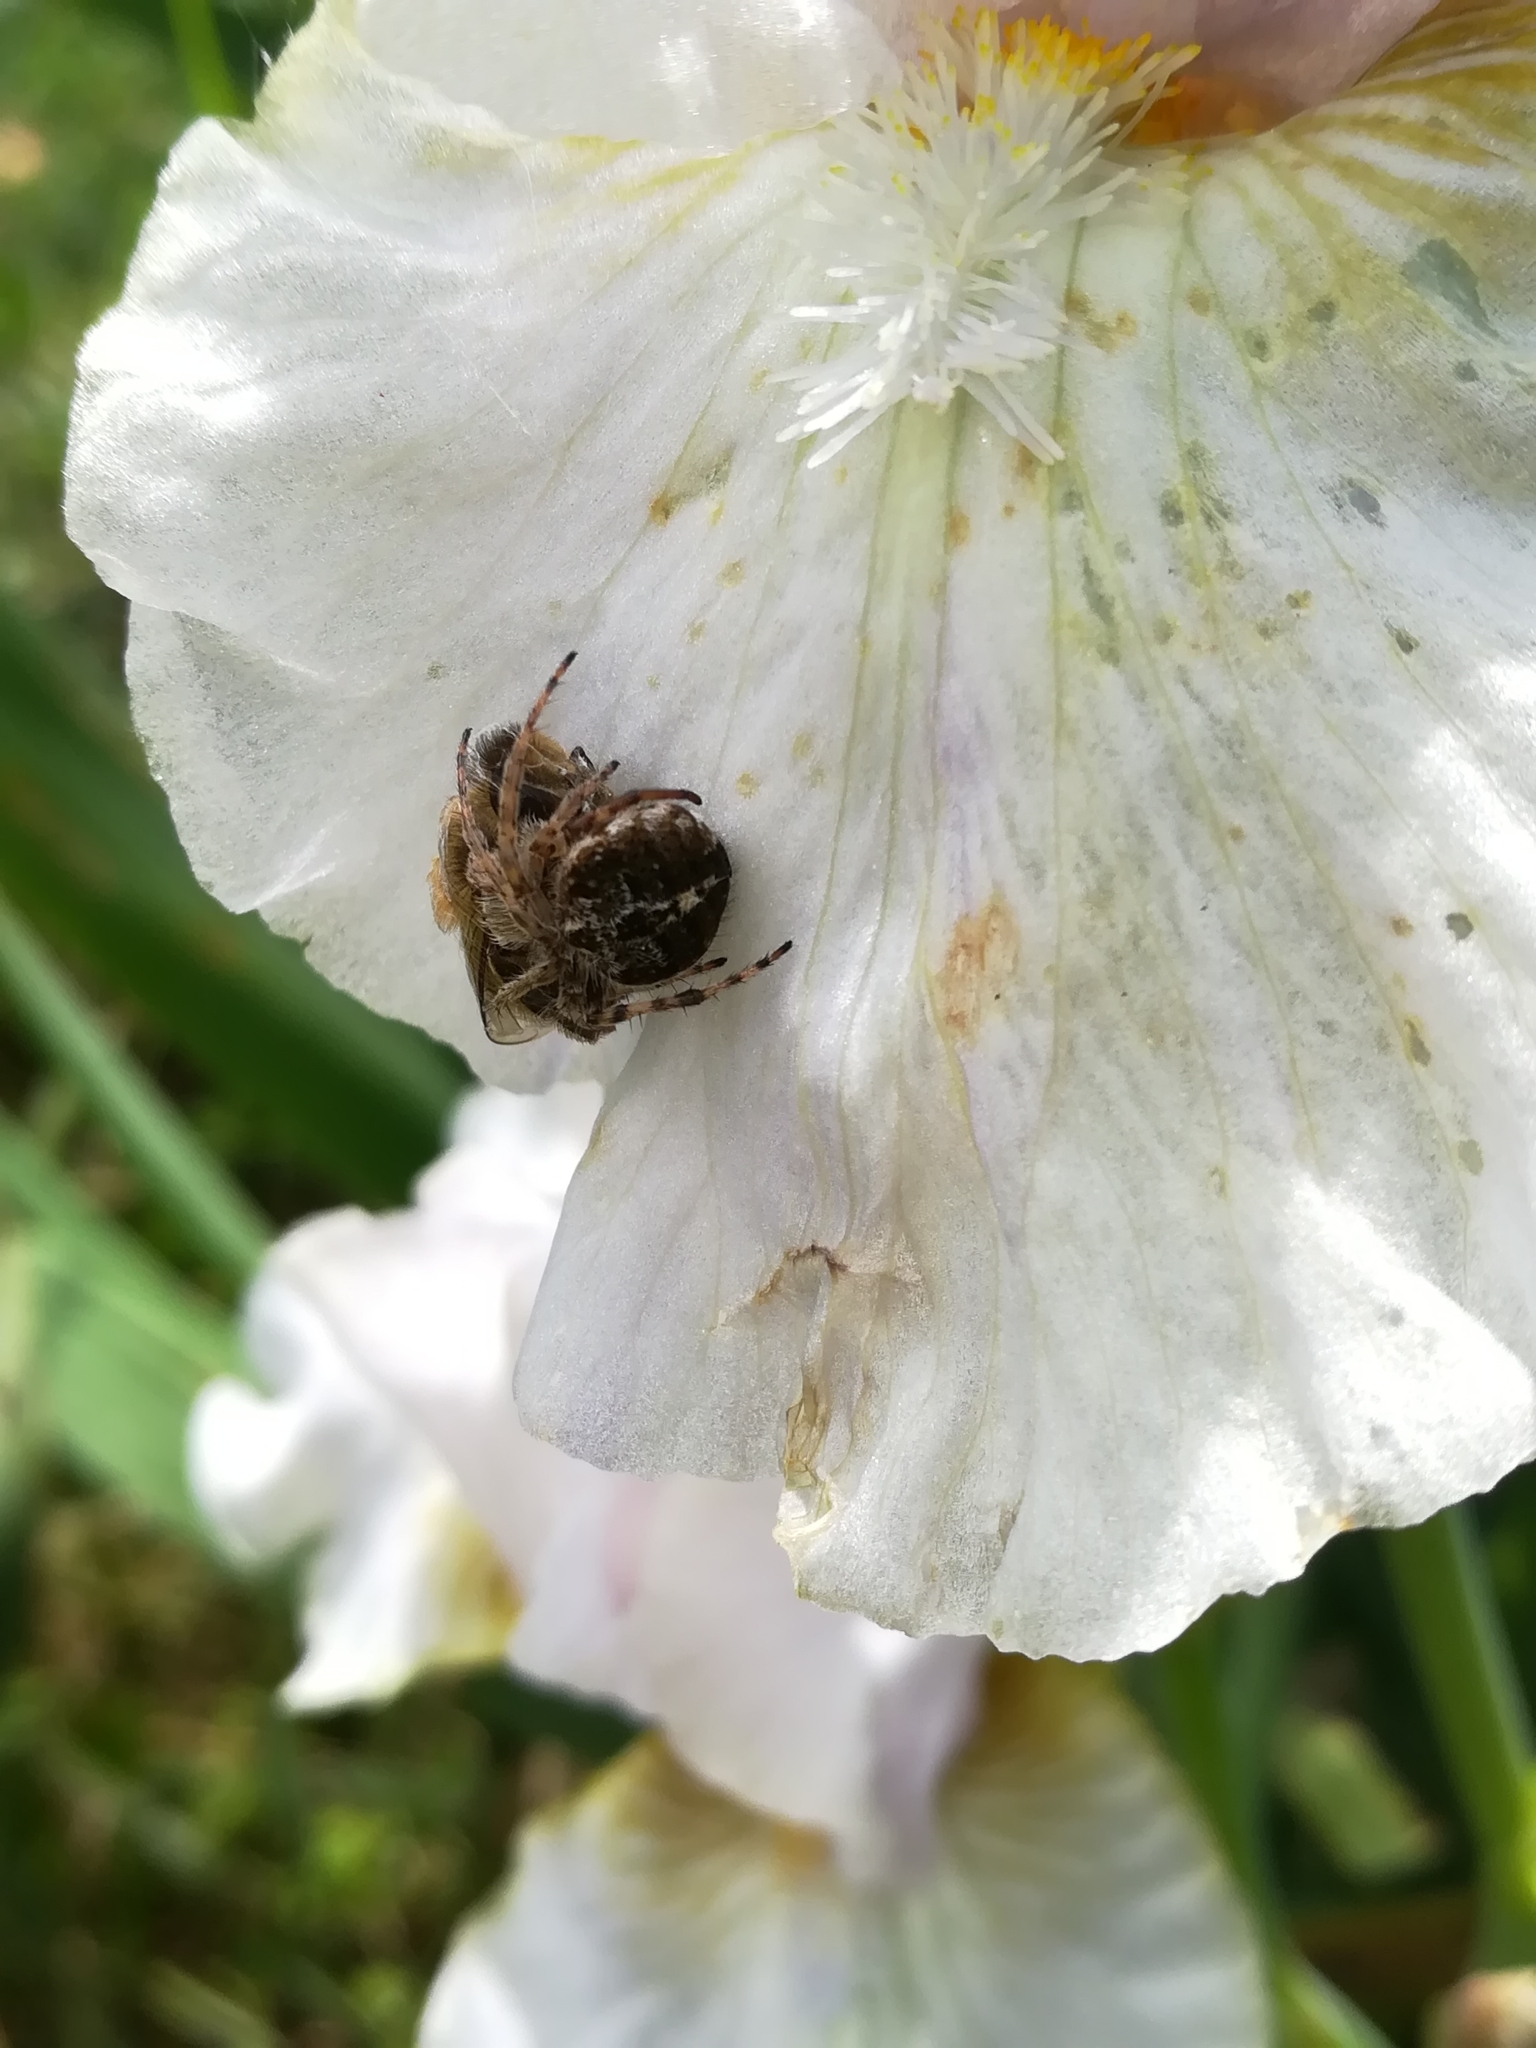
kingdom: Animalia
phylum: Arthropoda
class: Arachnida
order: Araneae
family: Araneidae
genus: Agalenatea
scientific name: Agalenatea redii
